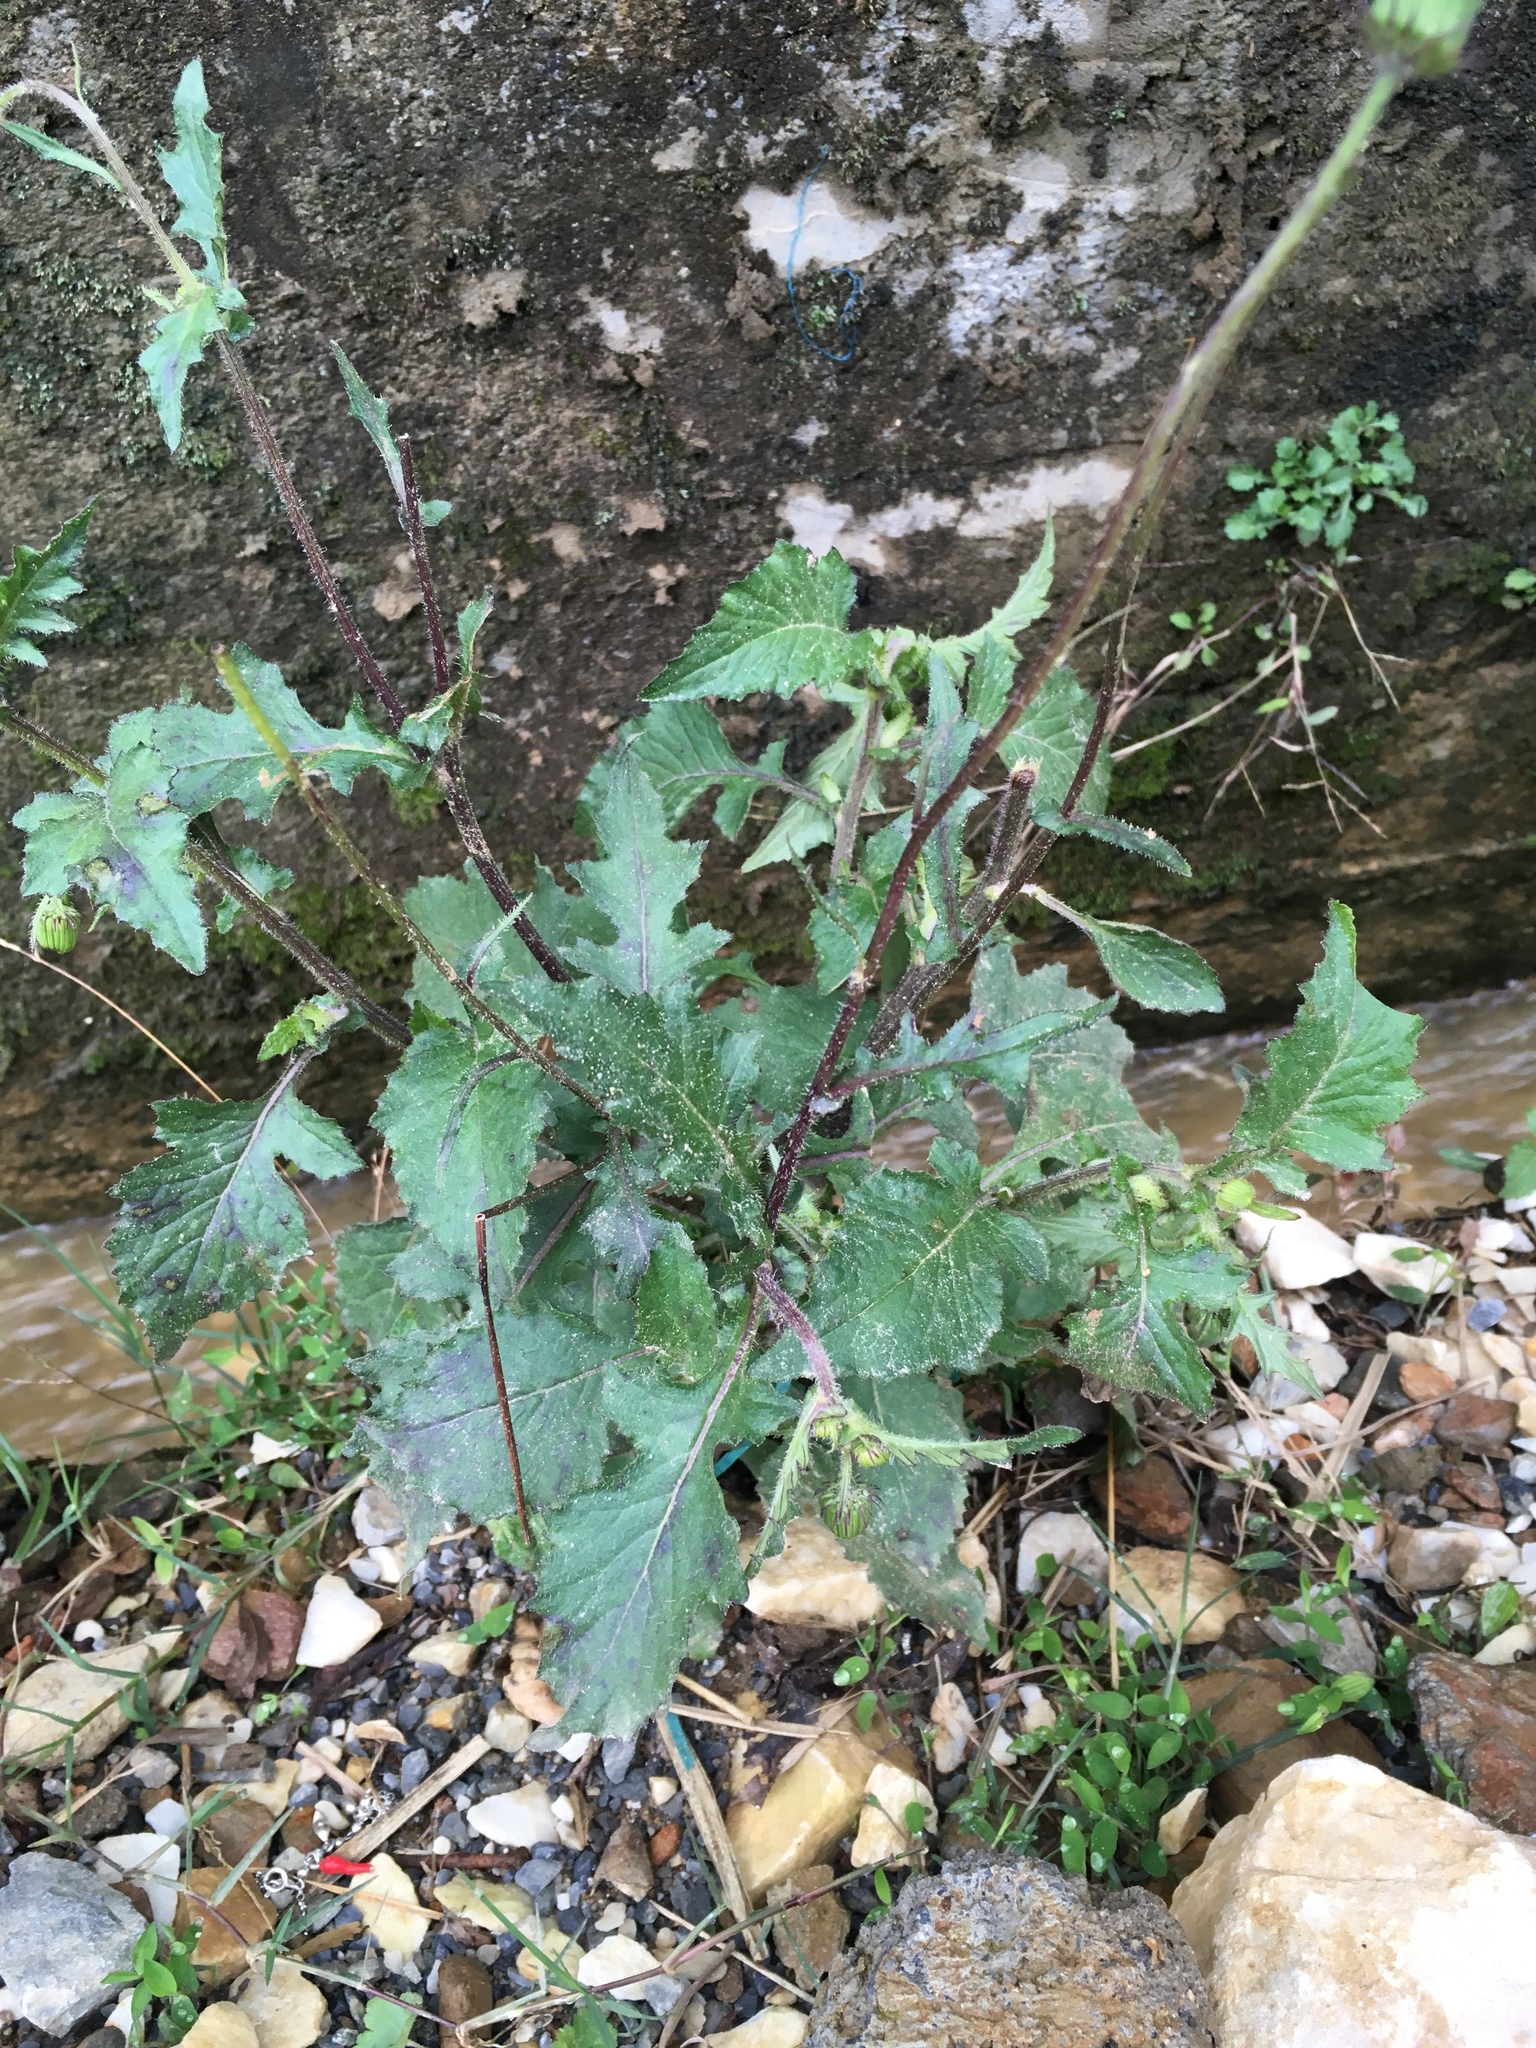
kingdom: Plantae
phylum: Tracheophyta
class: Magnoliopsida
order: Asterales
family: Asteraceae
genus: Crassocephalum
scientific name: Crassocephalum rubens
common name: Yoruban bologi
